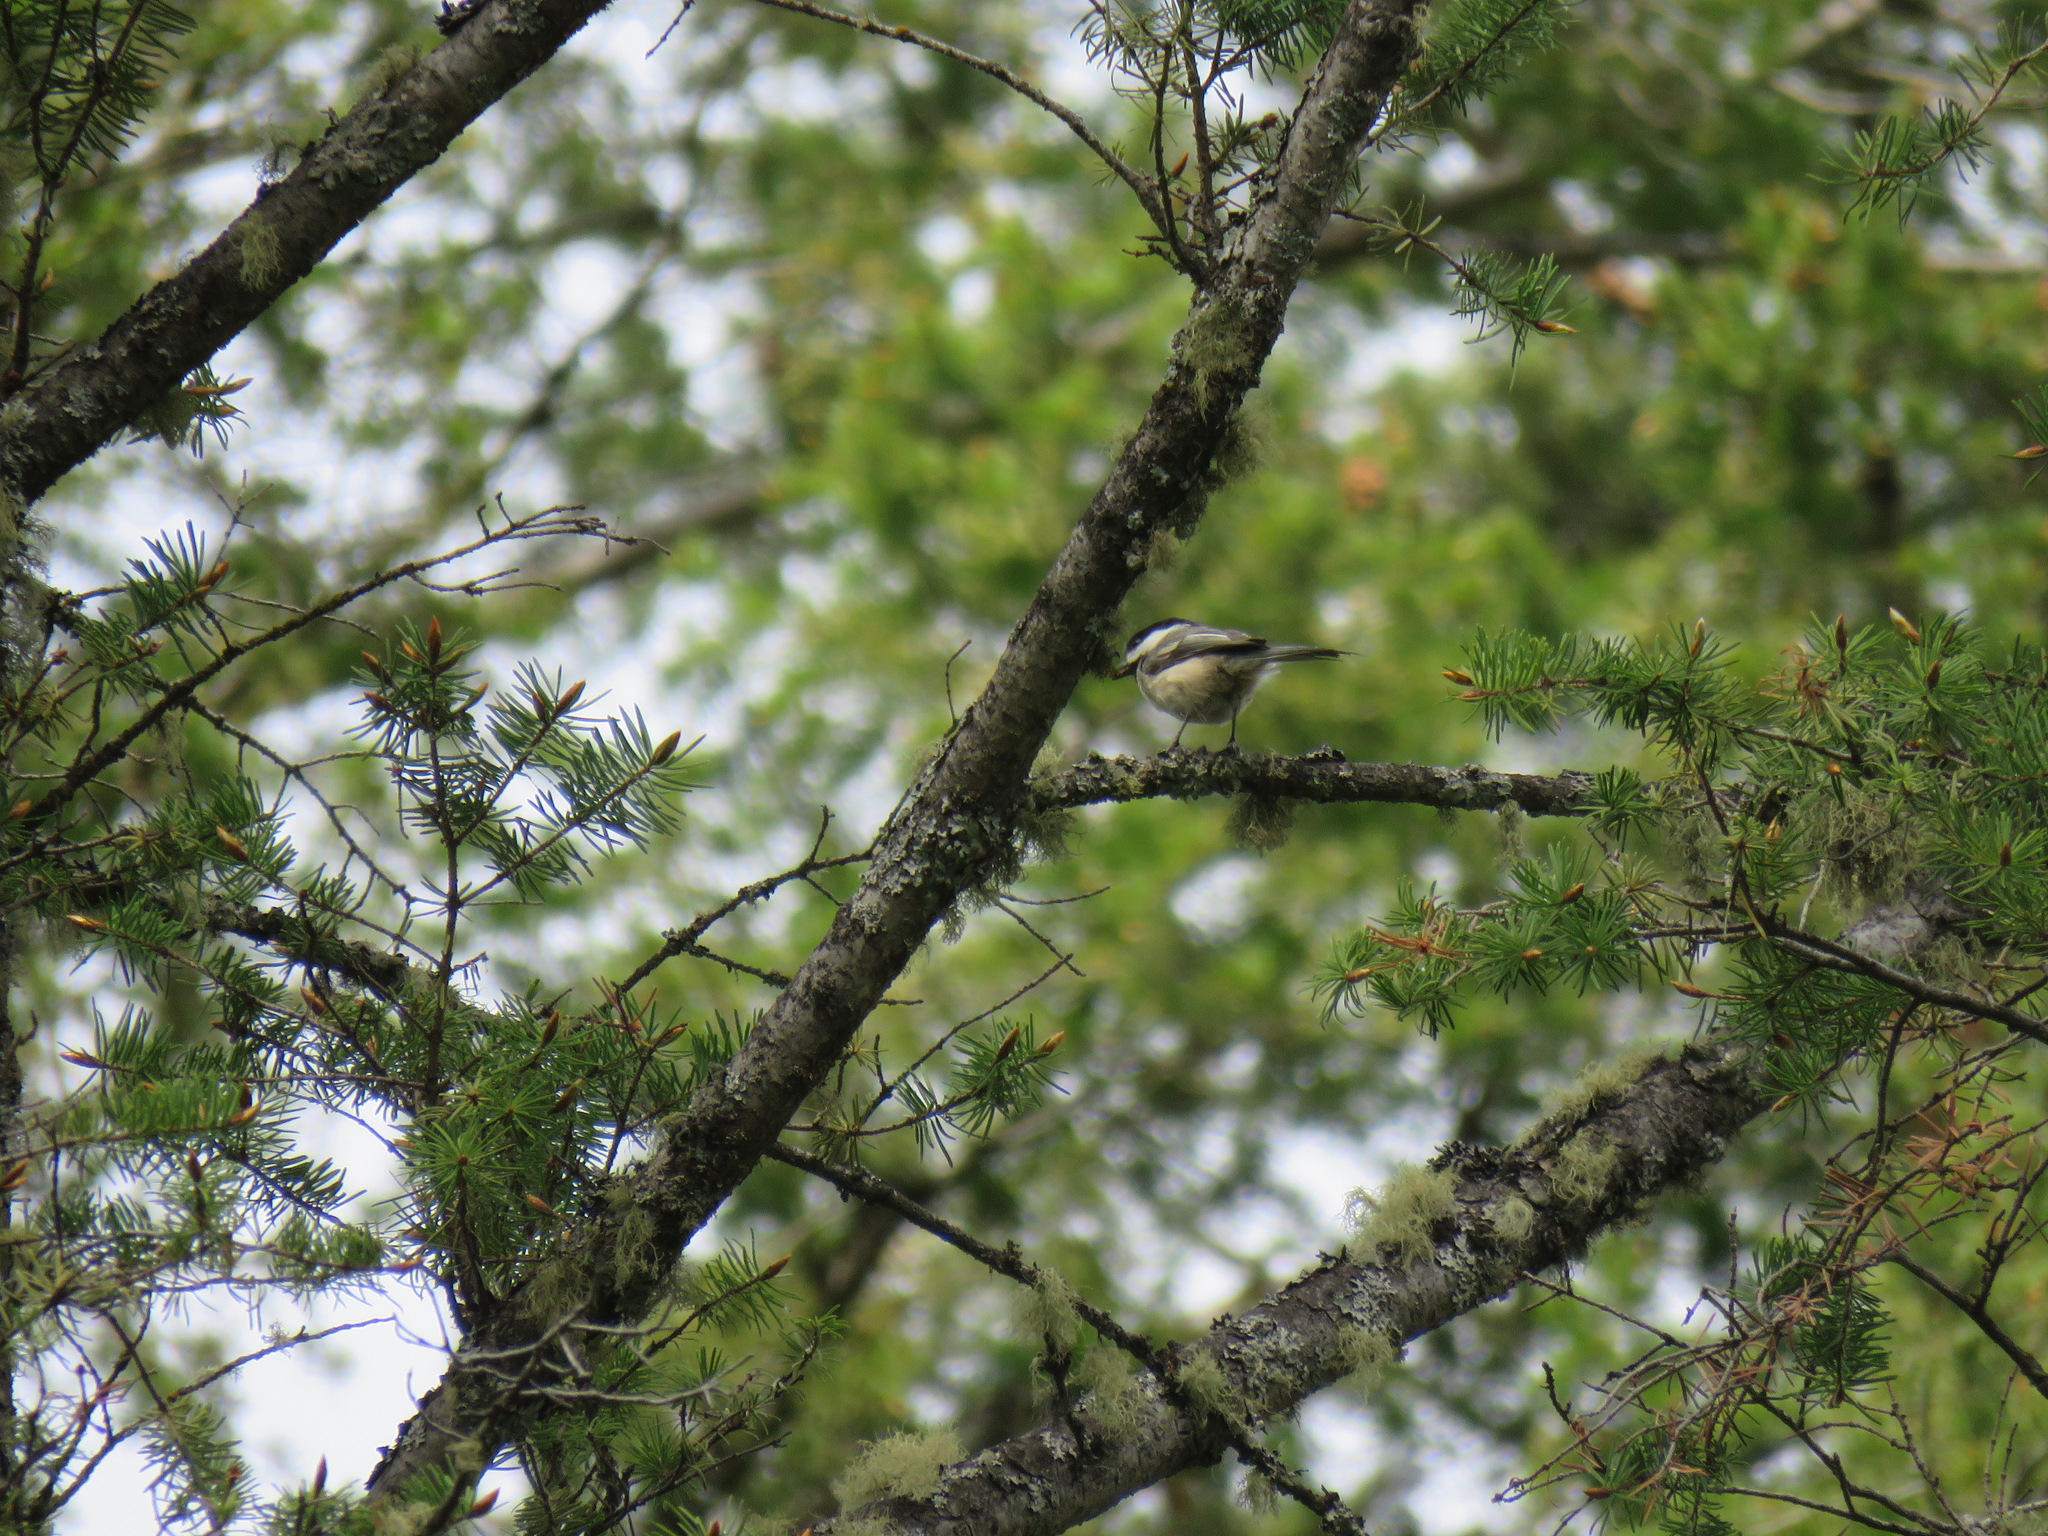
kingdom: Animalia
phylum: Chordata
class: Aves
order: Passeriformes
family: Paridae
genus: Poecile
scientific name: Poecile atricapillus
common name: Black-capped chickadee
